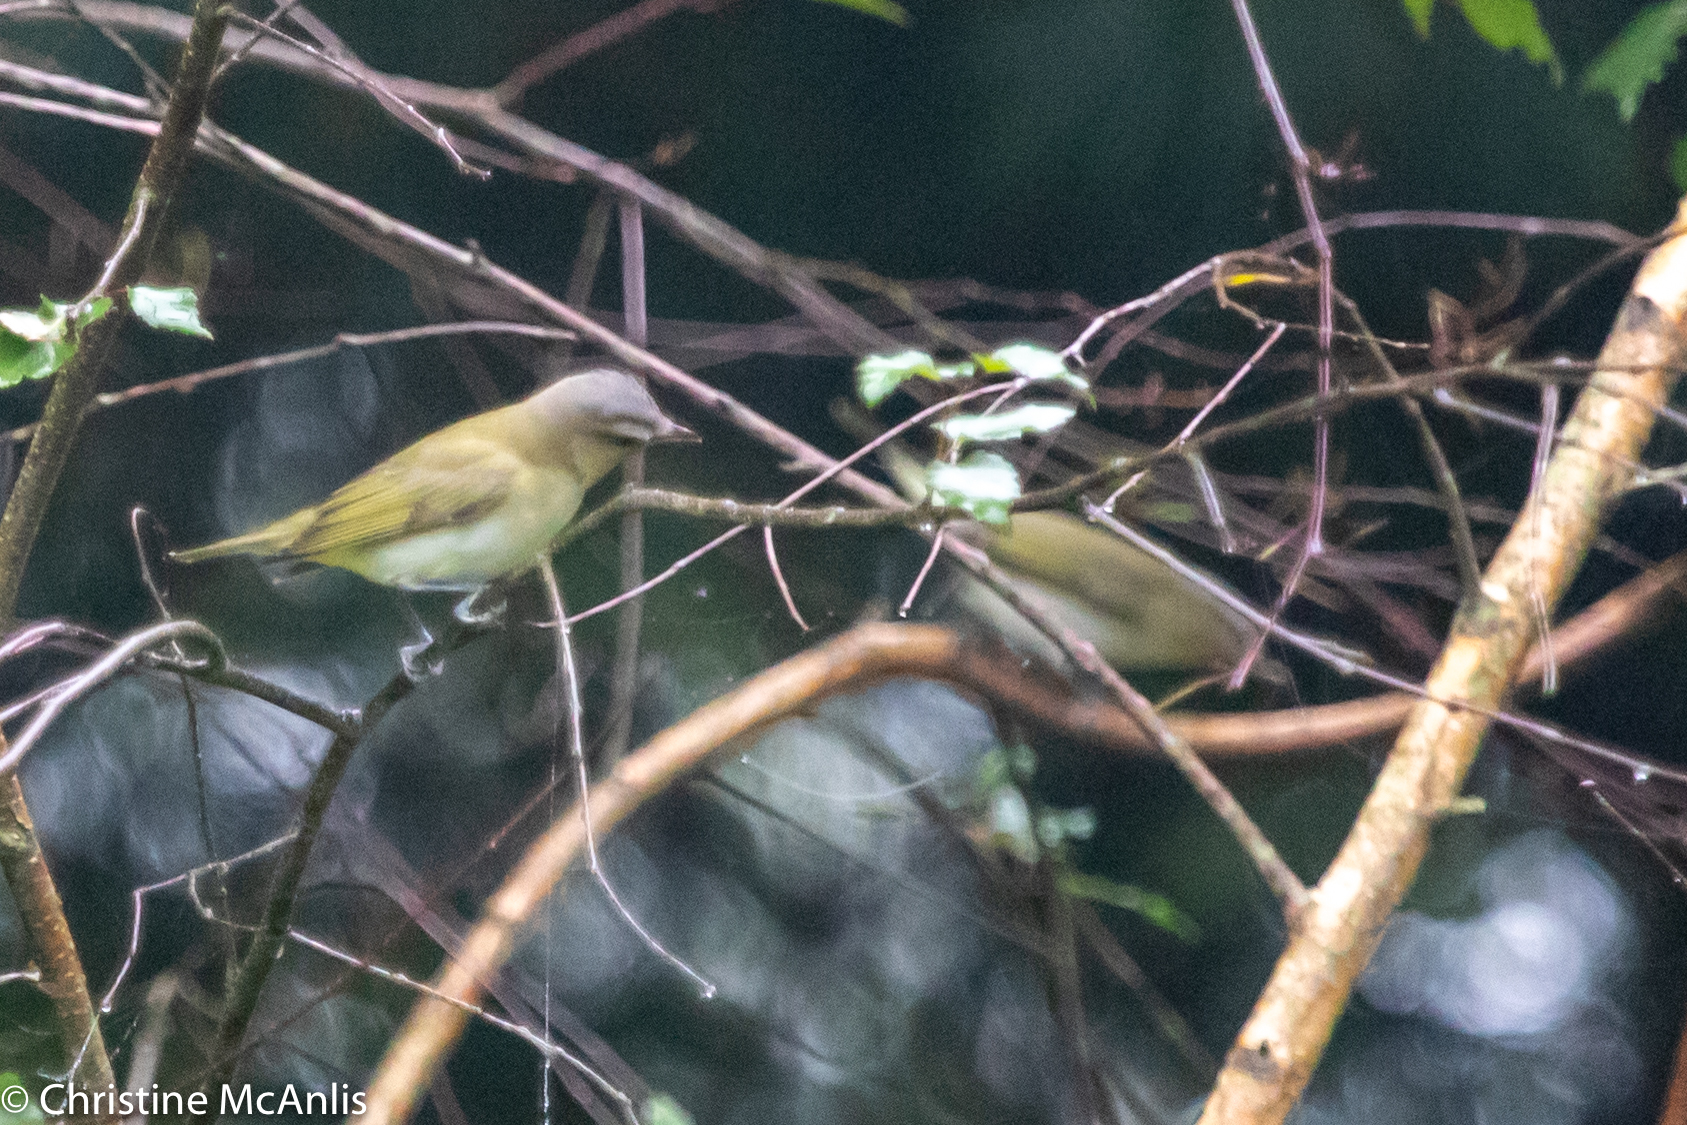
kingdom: Animalia
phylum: Chordata
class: Aves
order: Passeriformes
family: Vireonidae
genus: Vireo
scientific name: Vireo olivaceus
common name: Red-eyed vireo
